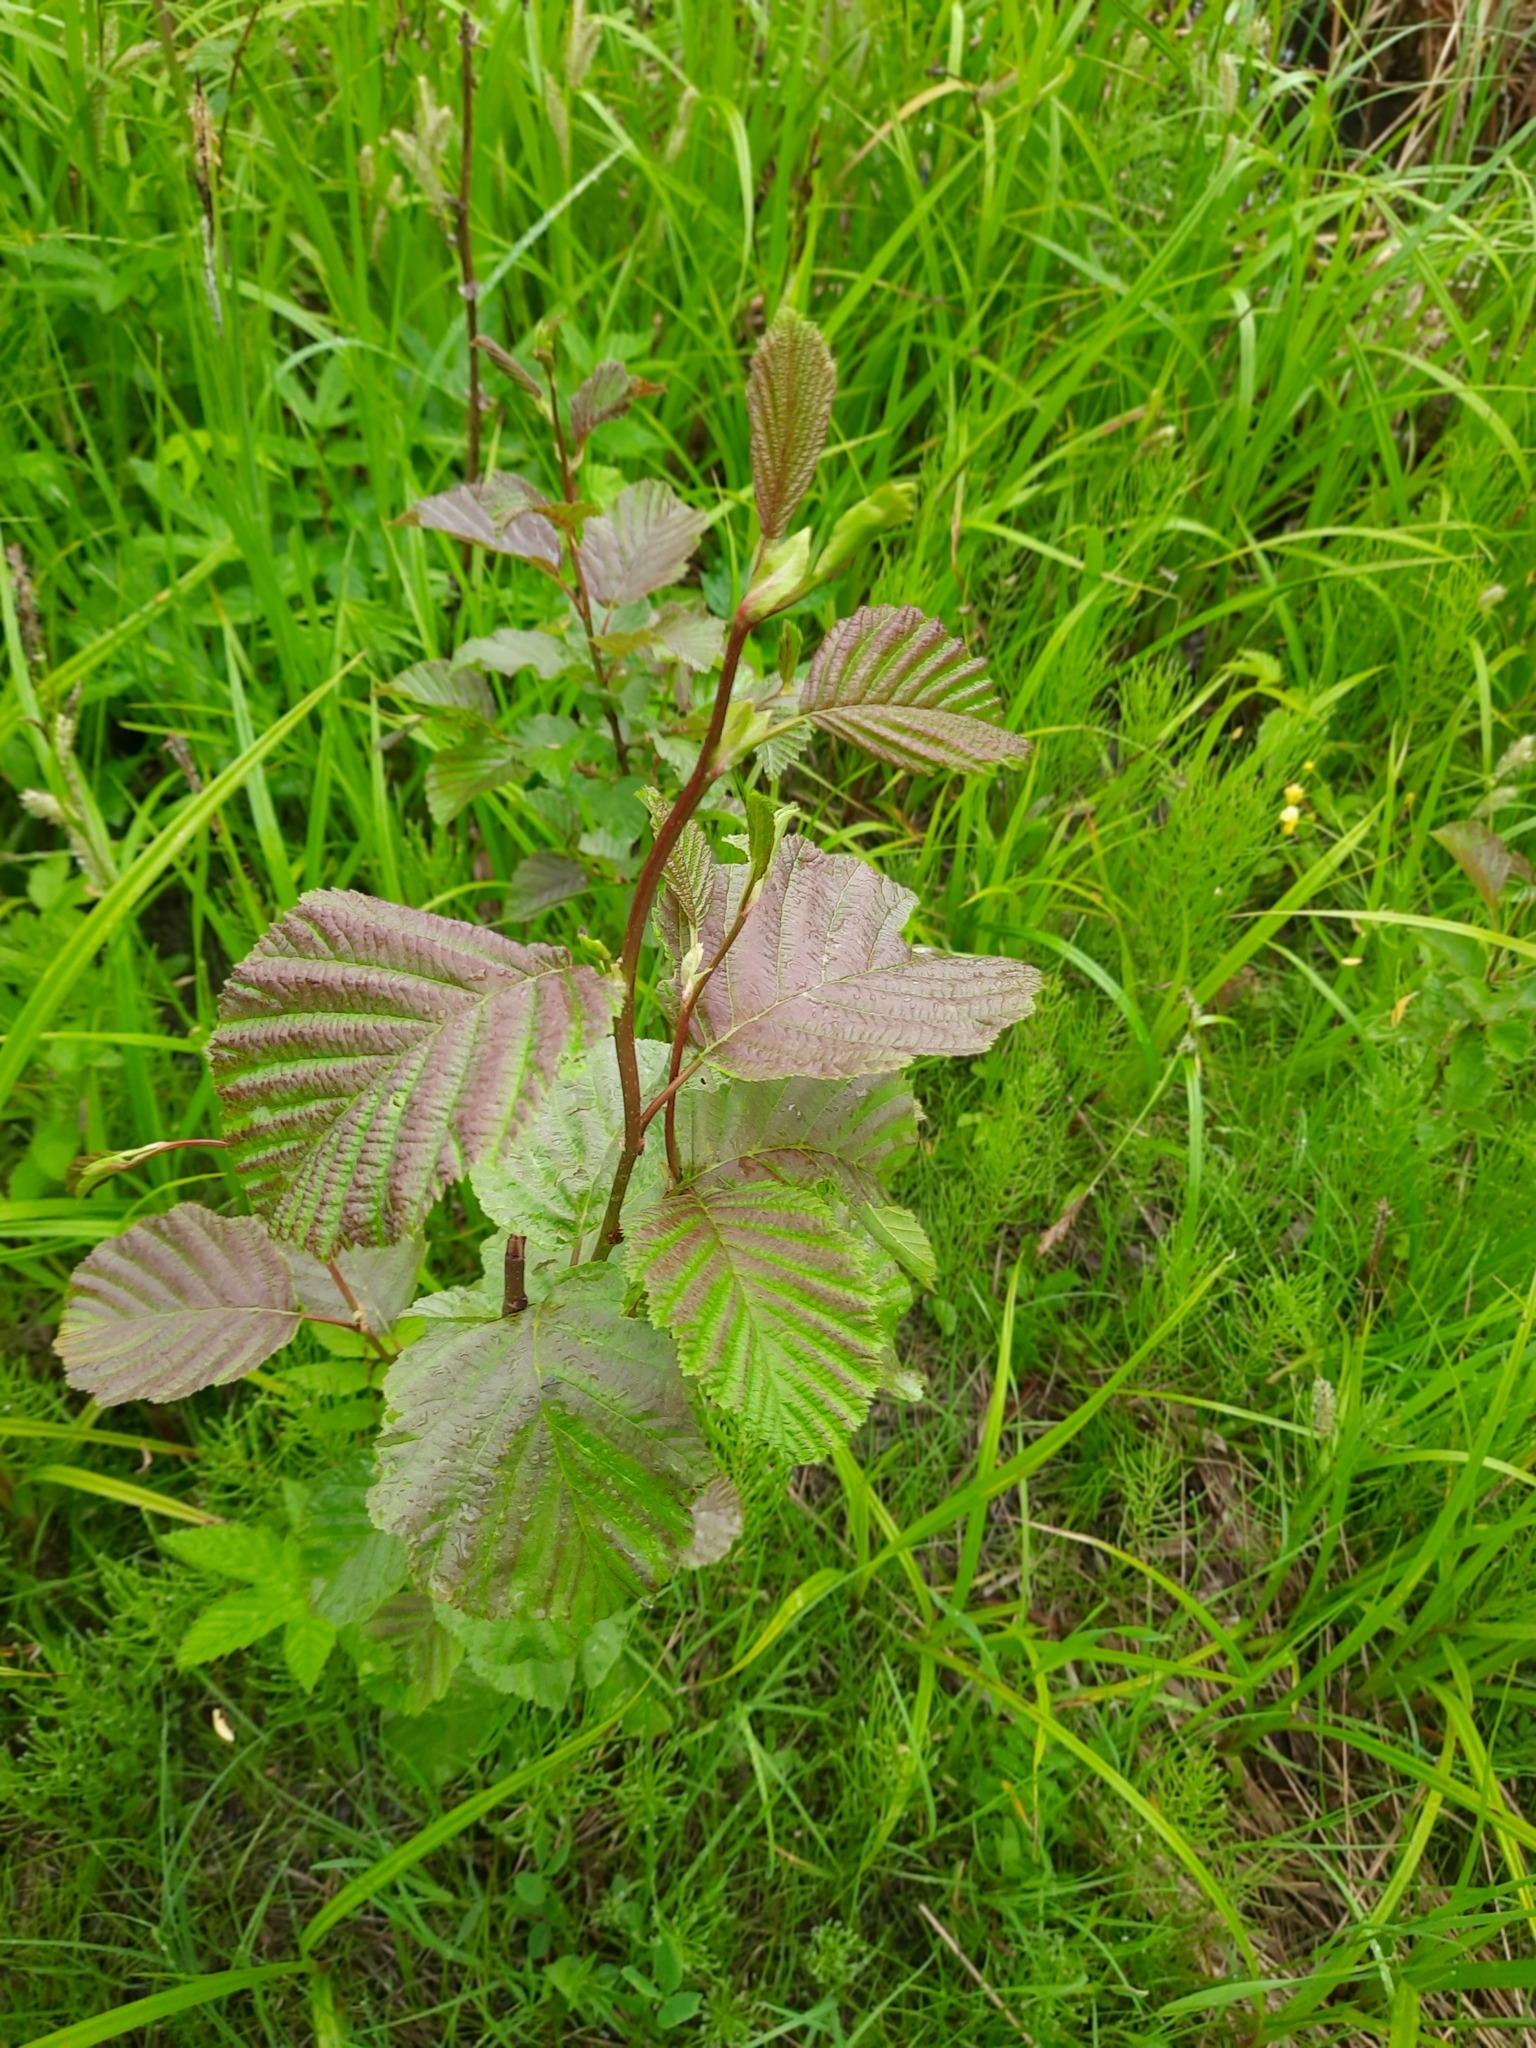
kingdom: Plantae
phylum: Tracheophyta
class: Magnoliopsida
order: Fagales
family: Betulaceae
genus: Alnus
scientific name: Alnus incana
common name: Grey alder
